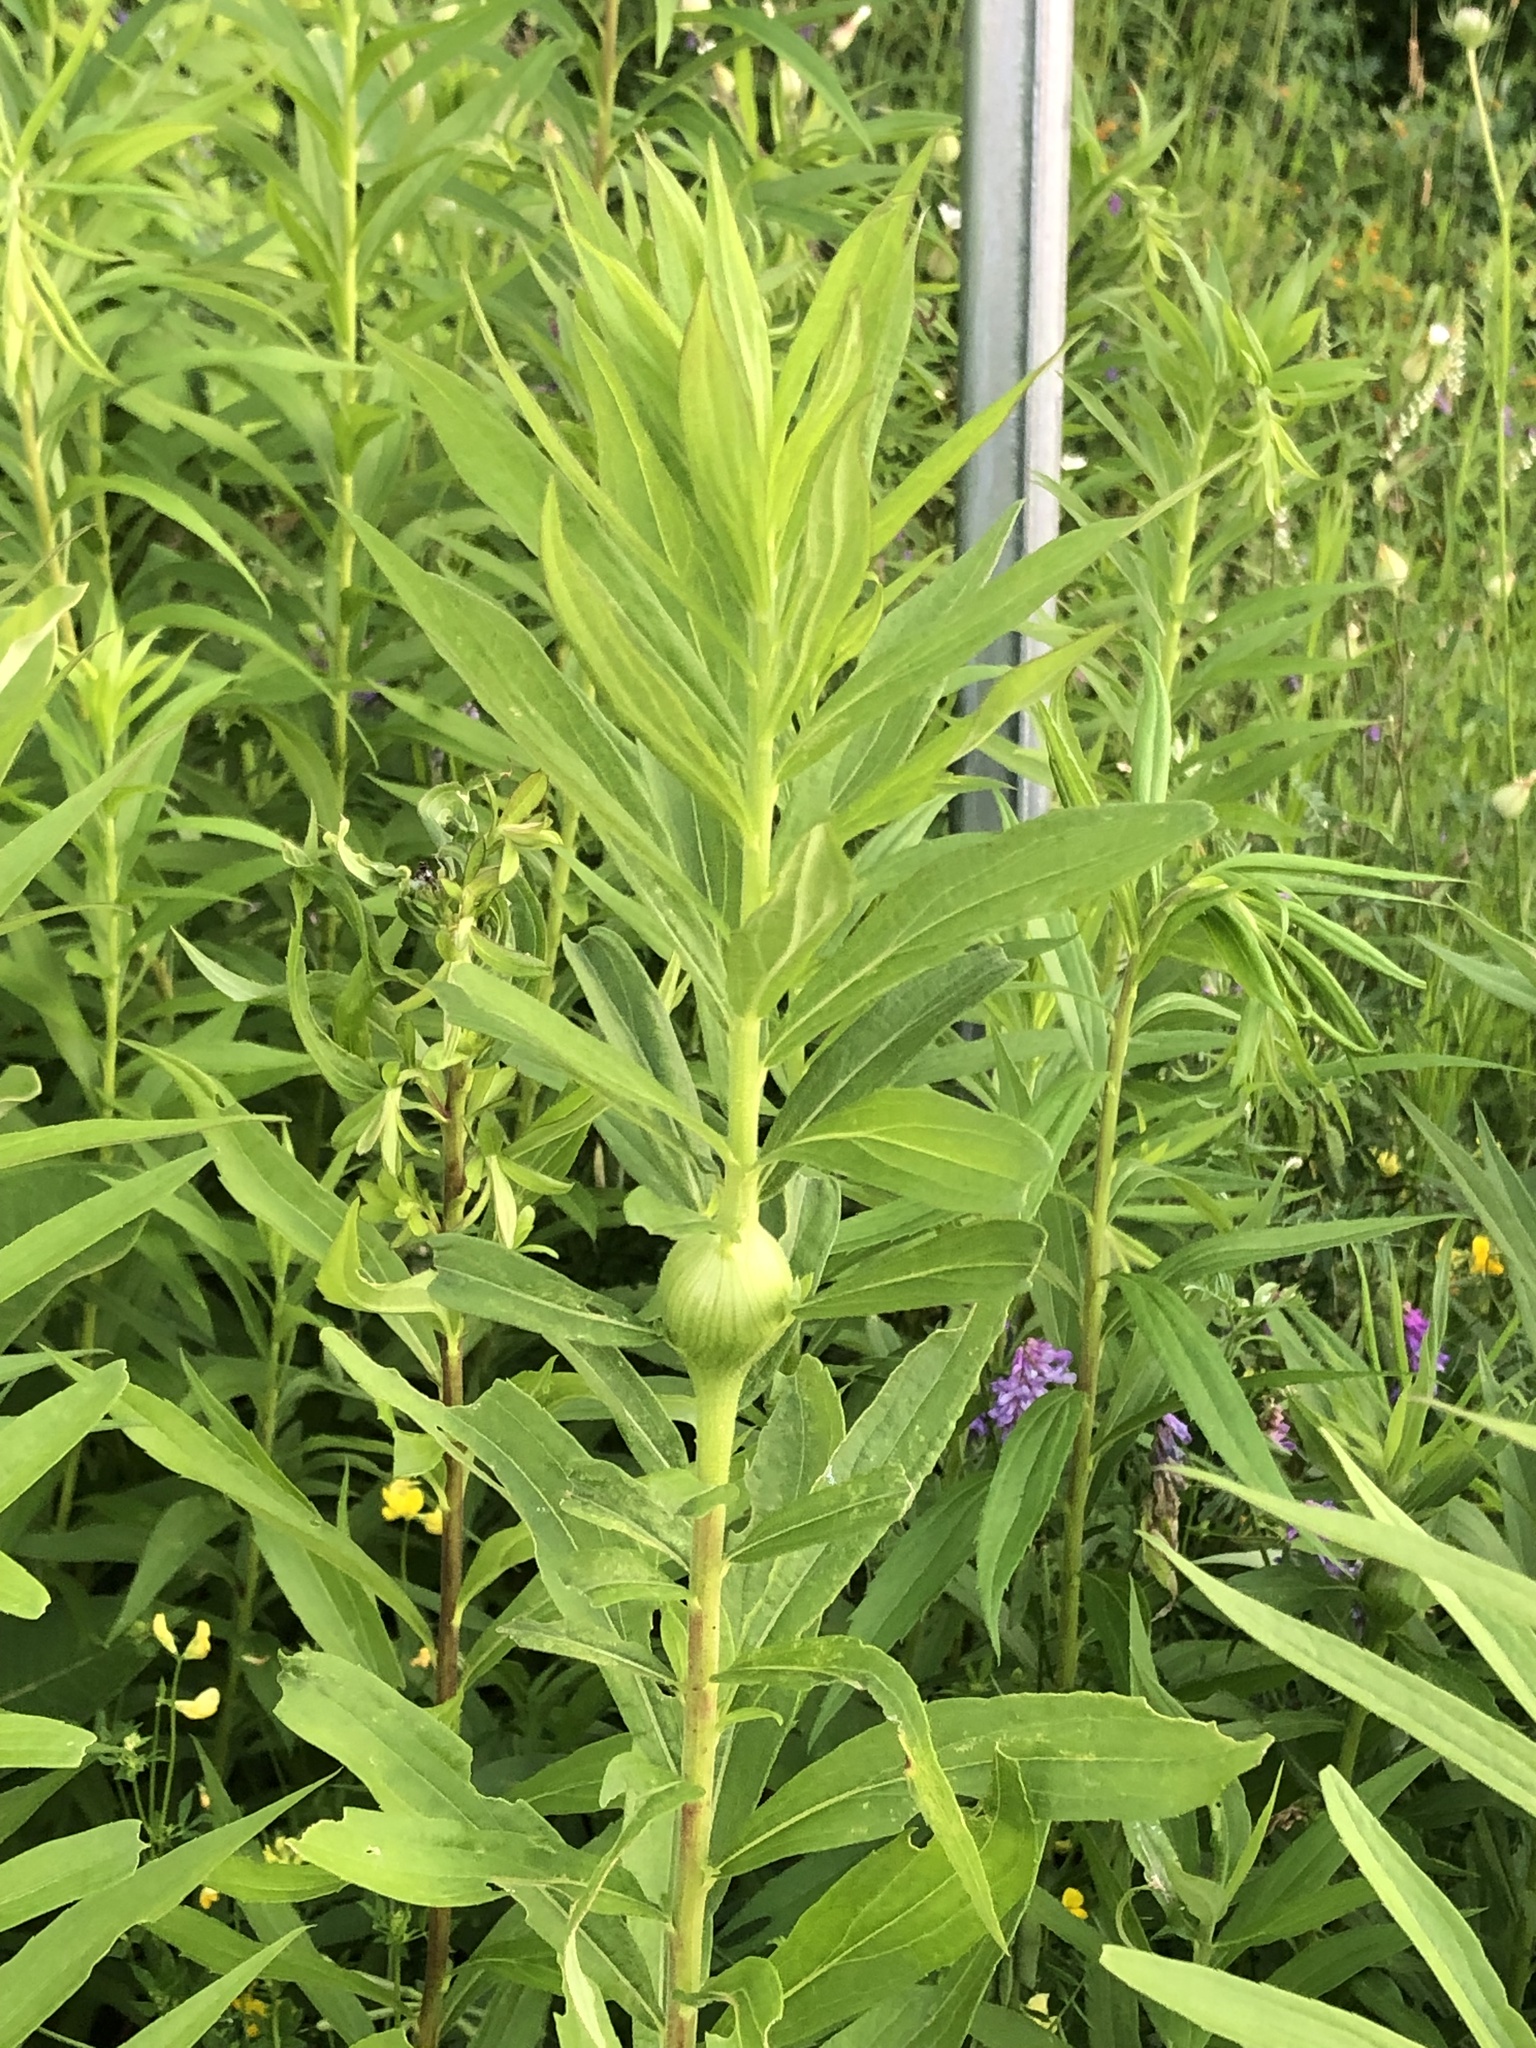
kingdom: Plantae
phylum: Tracheophyta
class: Magnoliopsida
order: Asterales
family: Asteraceae
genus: Solidago
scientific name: Solidago altissima
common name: Late goldenrod
